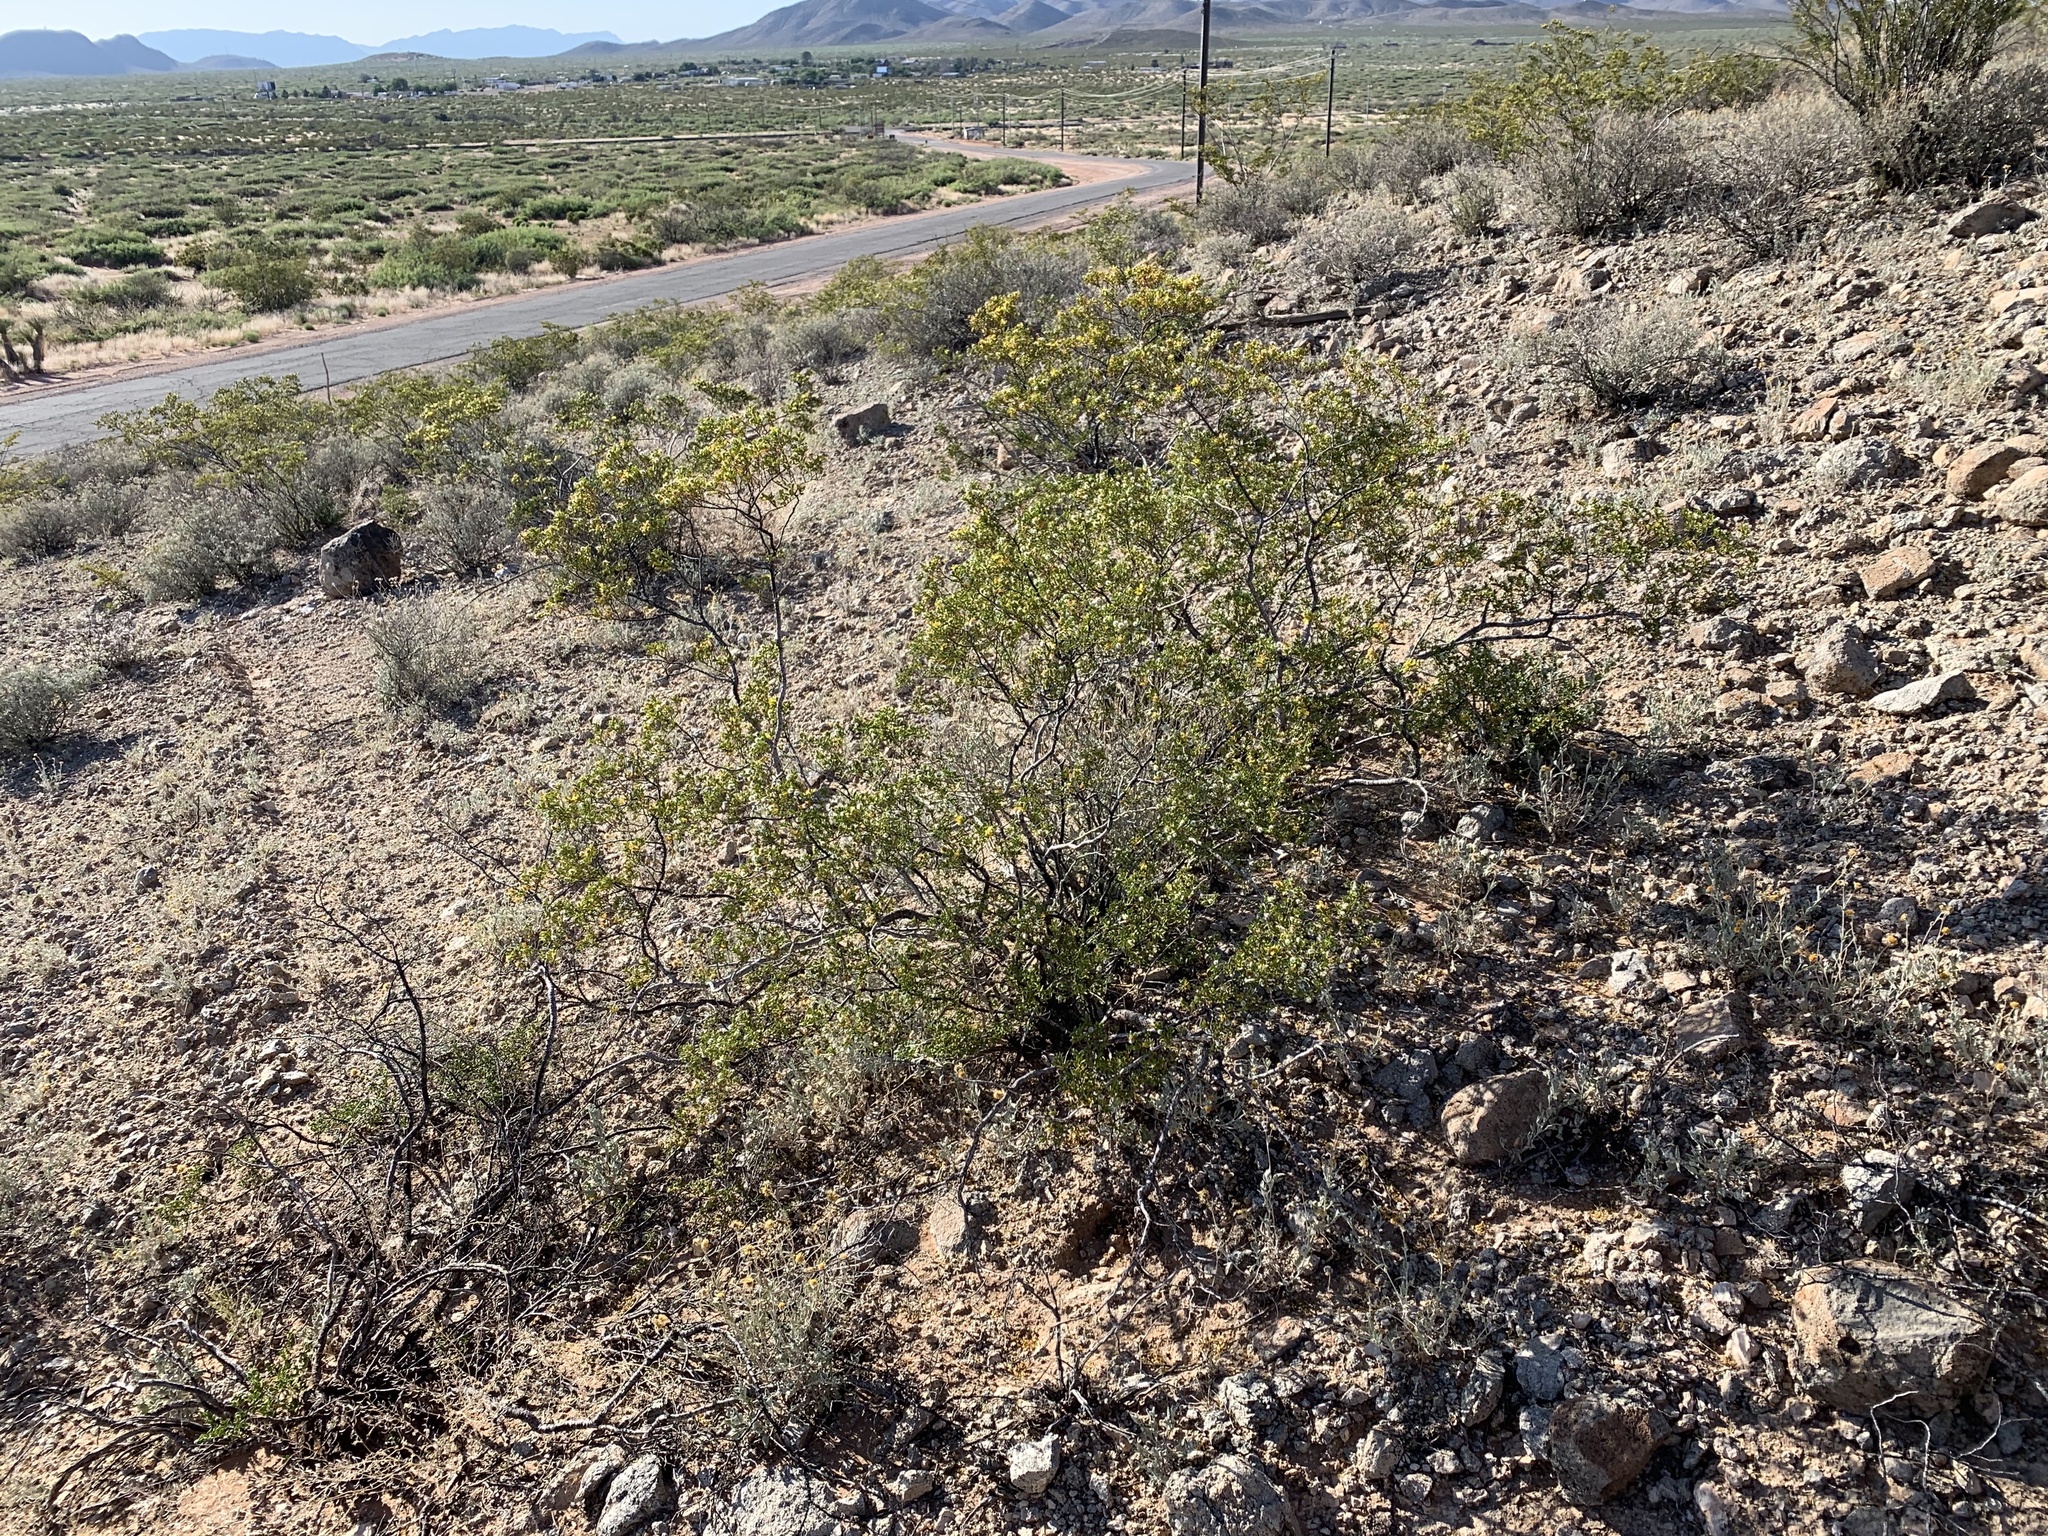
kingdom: Plantae
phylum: Tracheophyta
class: Magnoliopsida
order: Zygophyllales
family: Zygophyllaceae
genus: Larrea
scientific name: Larrea tridentata
